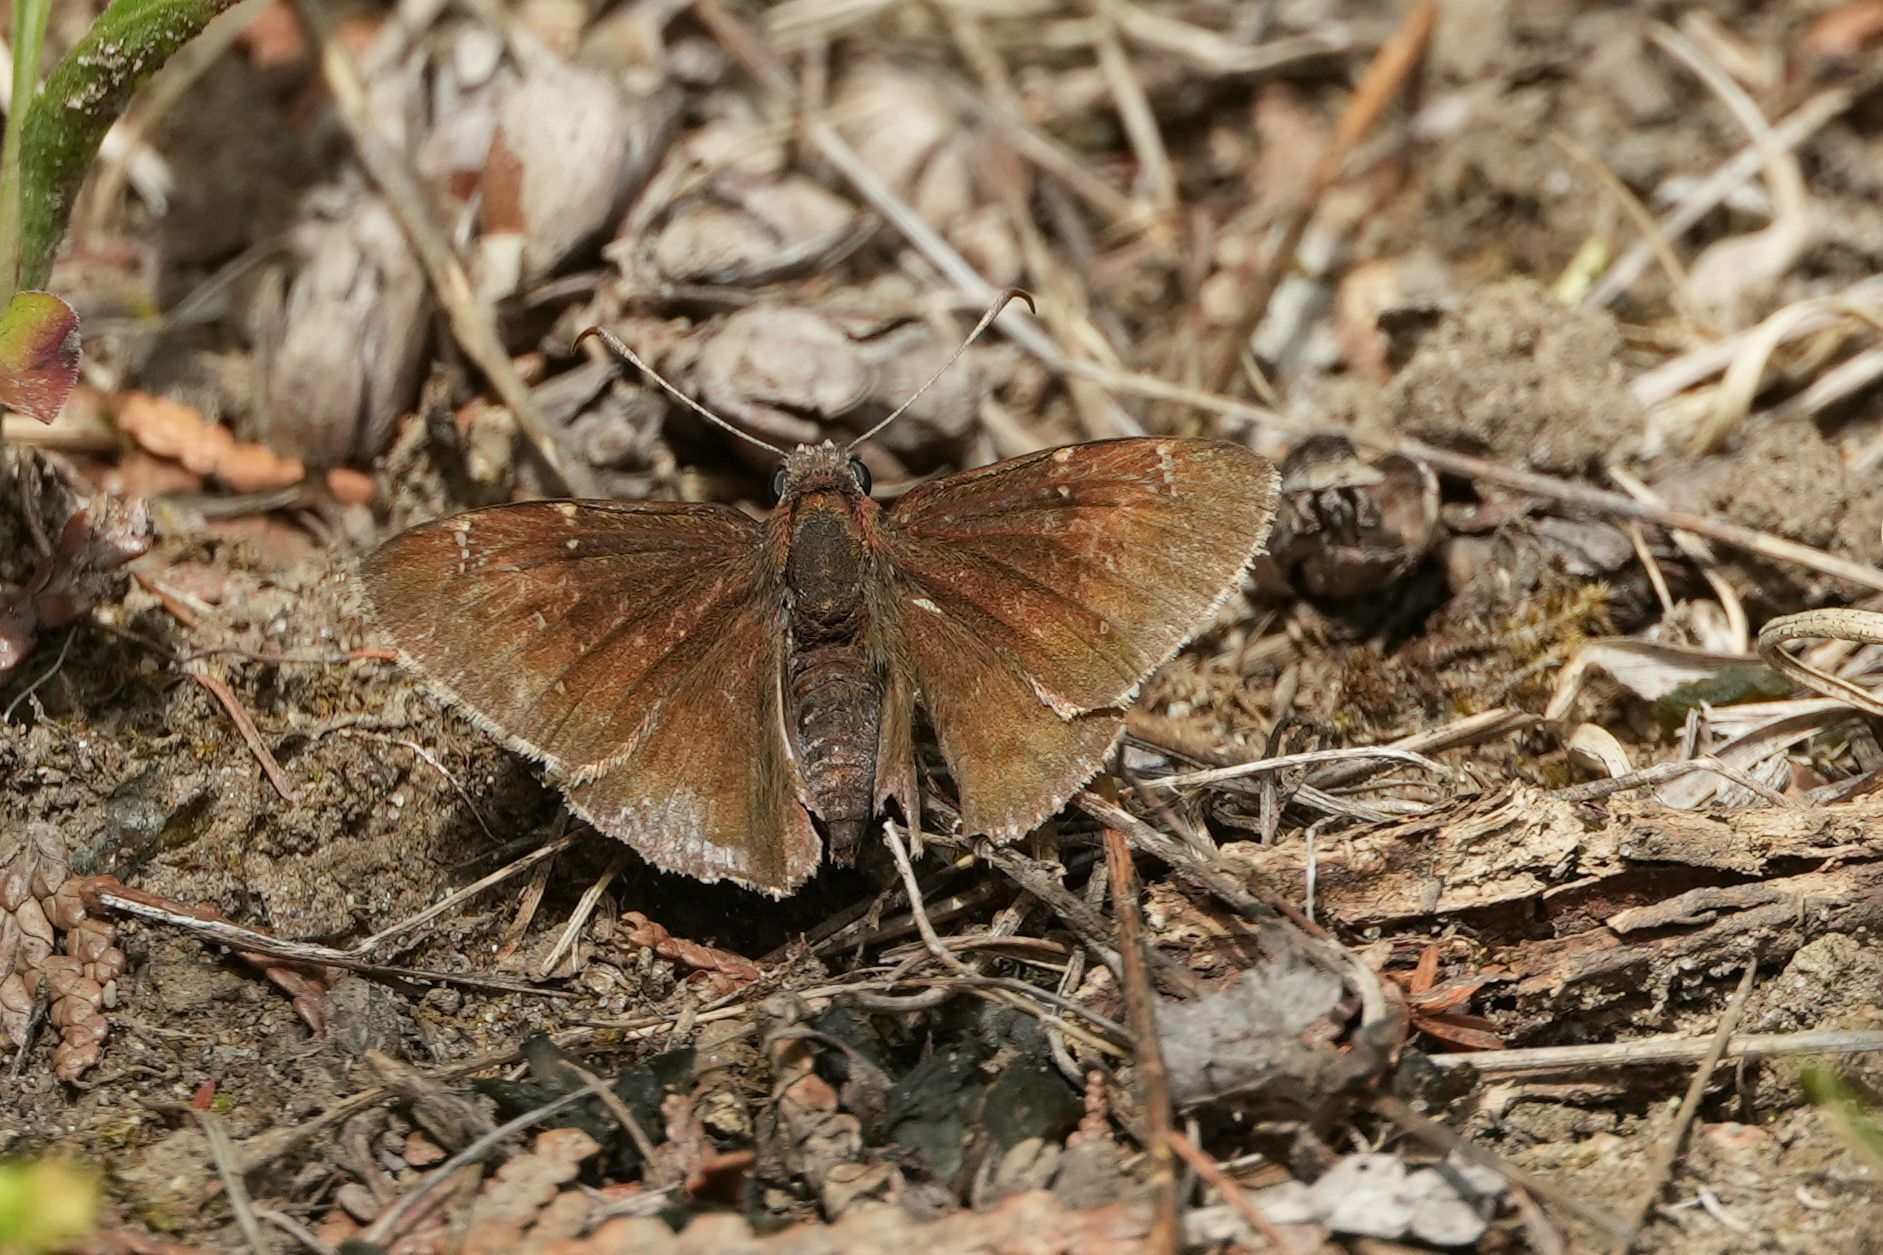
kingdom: Animalia
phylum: Arthropoda
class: Insecta
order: Lepidoptera
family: Hesperiidae
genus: Thorybes
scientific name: Thorybes pylades
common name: Northern cloudywing
